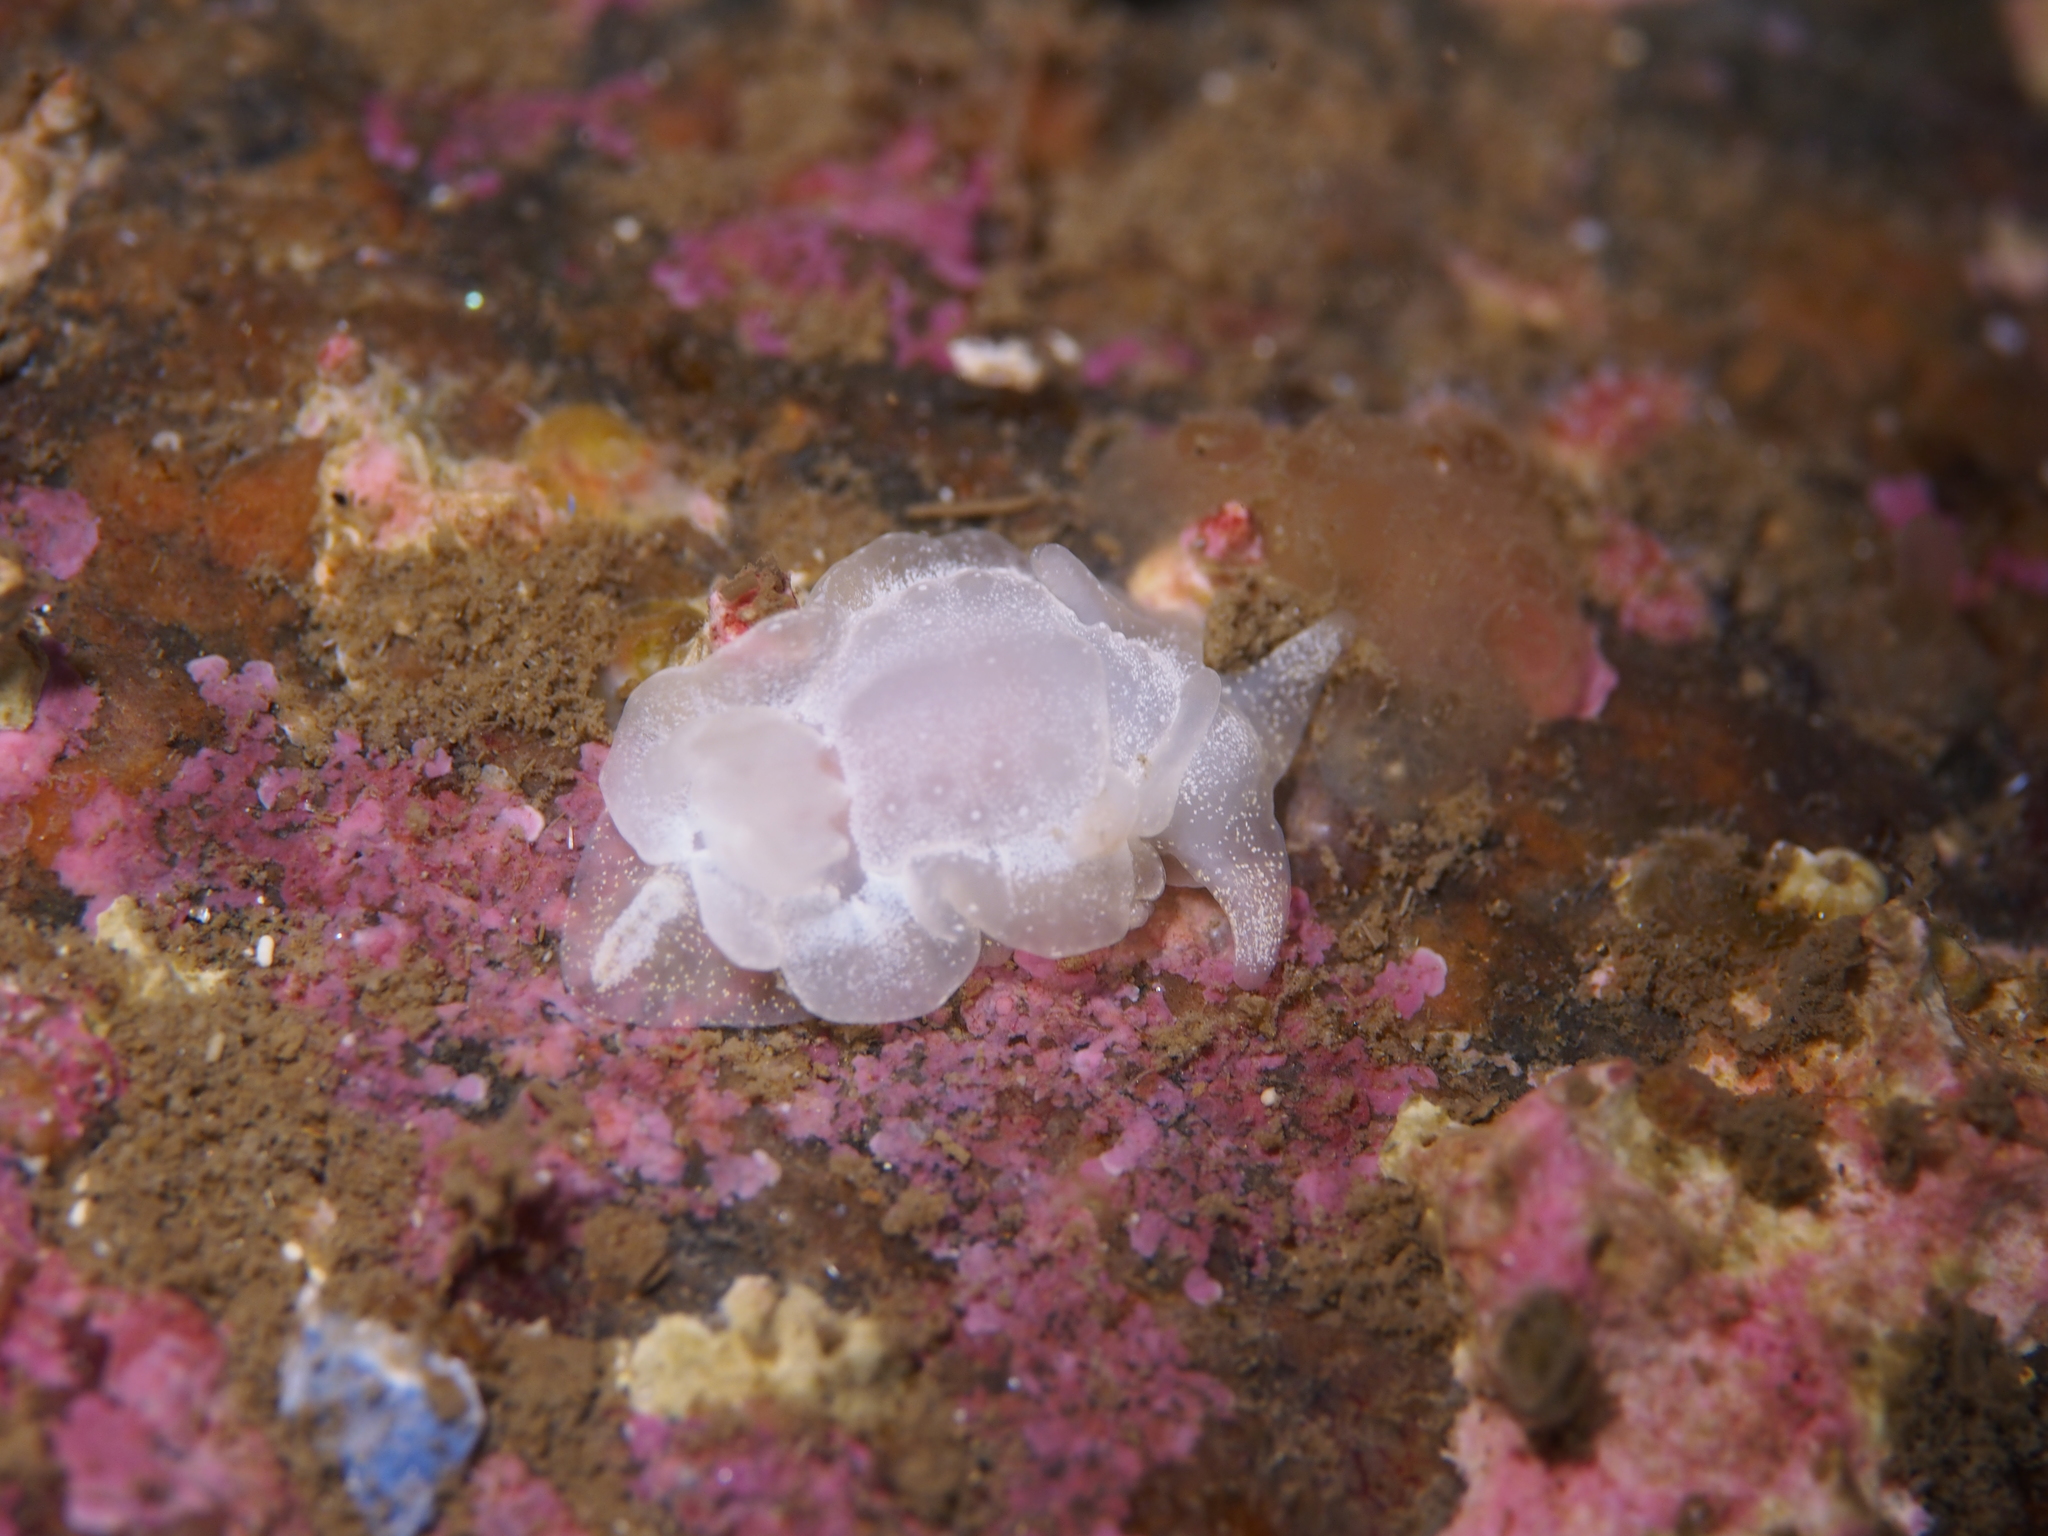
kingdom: Animalia
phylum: Mollusca
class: Gastropoda
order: Nudibranchia
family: Goniodorididae
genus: Okenia
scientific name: Okenia
